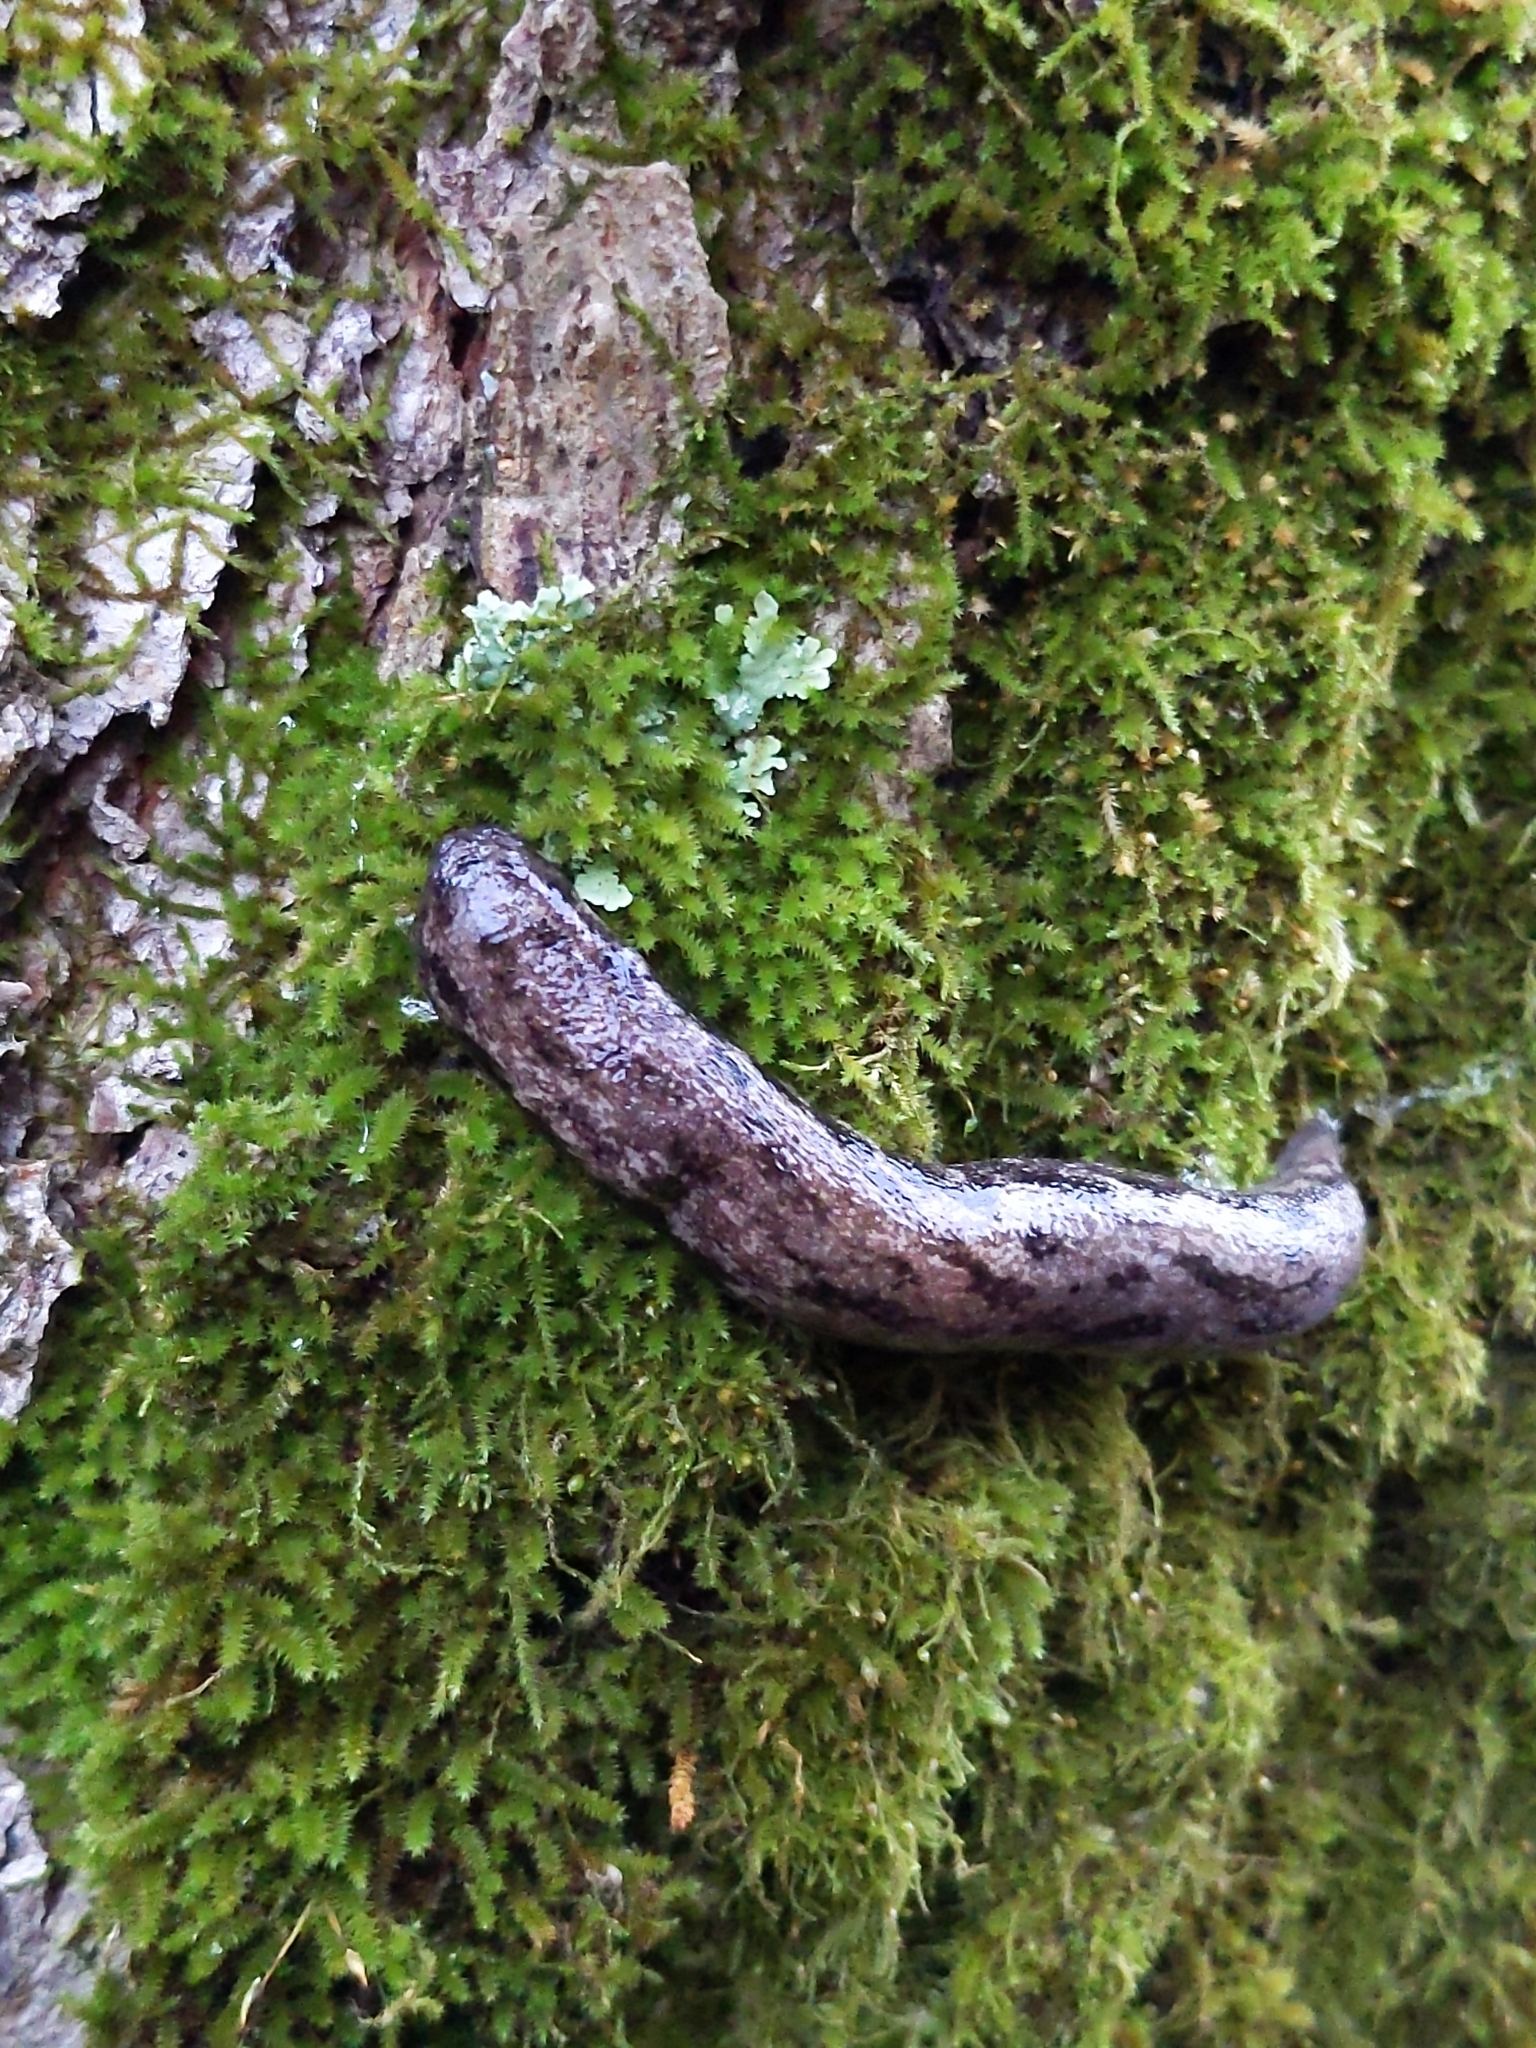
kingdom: Animalia
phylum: Mollusca
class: Gastropoda
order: Stylommatophora
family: Philomycidae
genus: Megapallifera
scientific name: Megapallifera mutabilis
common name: Changeable mantleslug
